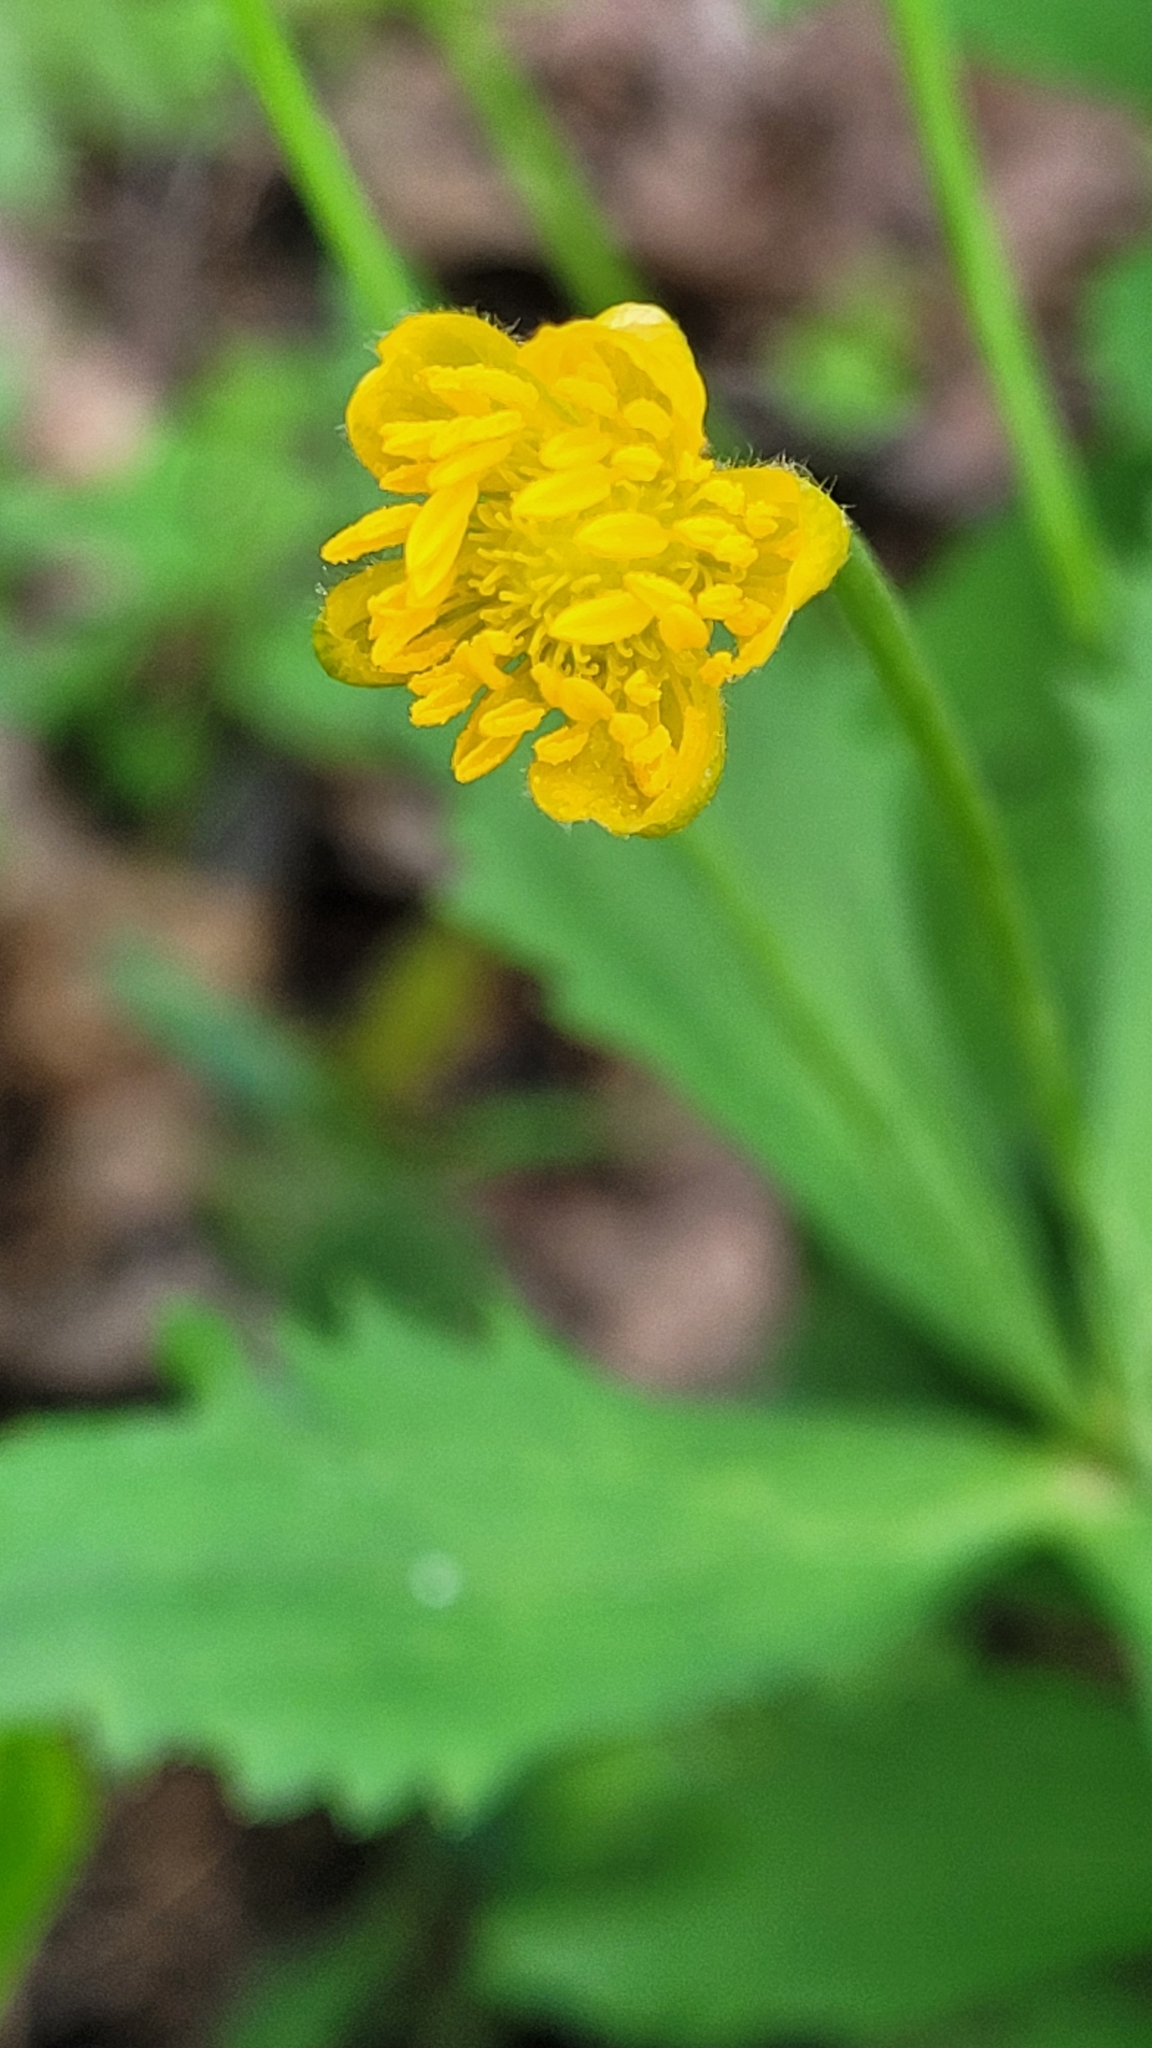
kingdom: Plantae
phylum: Tracheophyta
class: Magnoliopsida
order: Ranunculales
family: Ranunculaceae
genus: Ranunculus
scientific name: Ranunculus cassubicus
